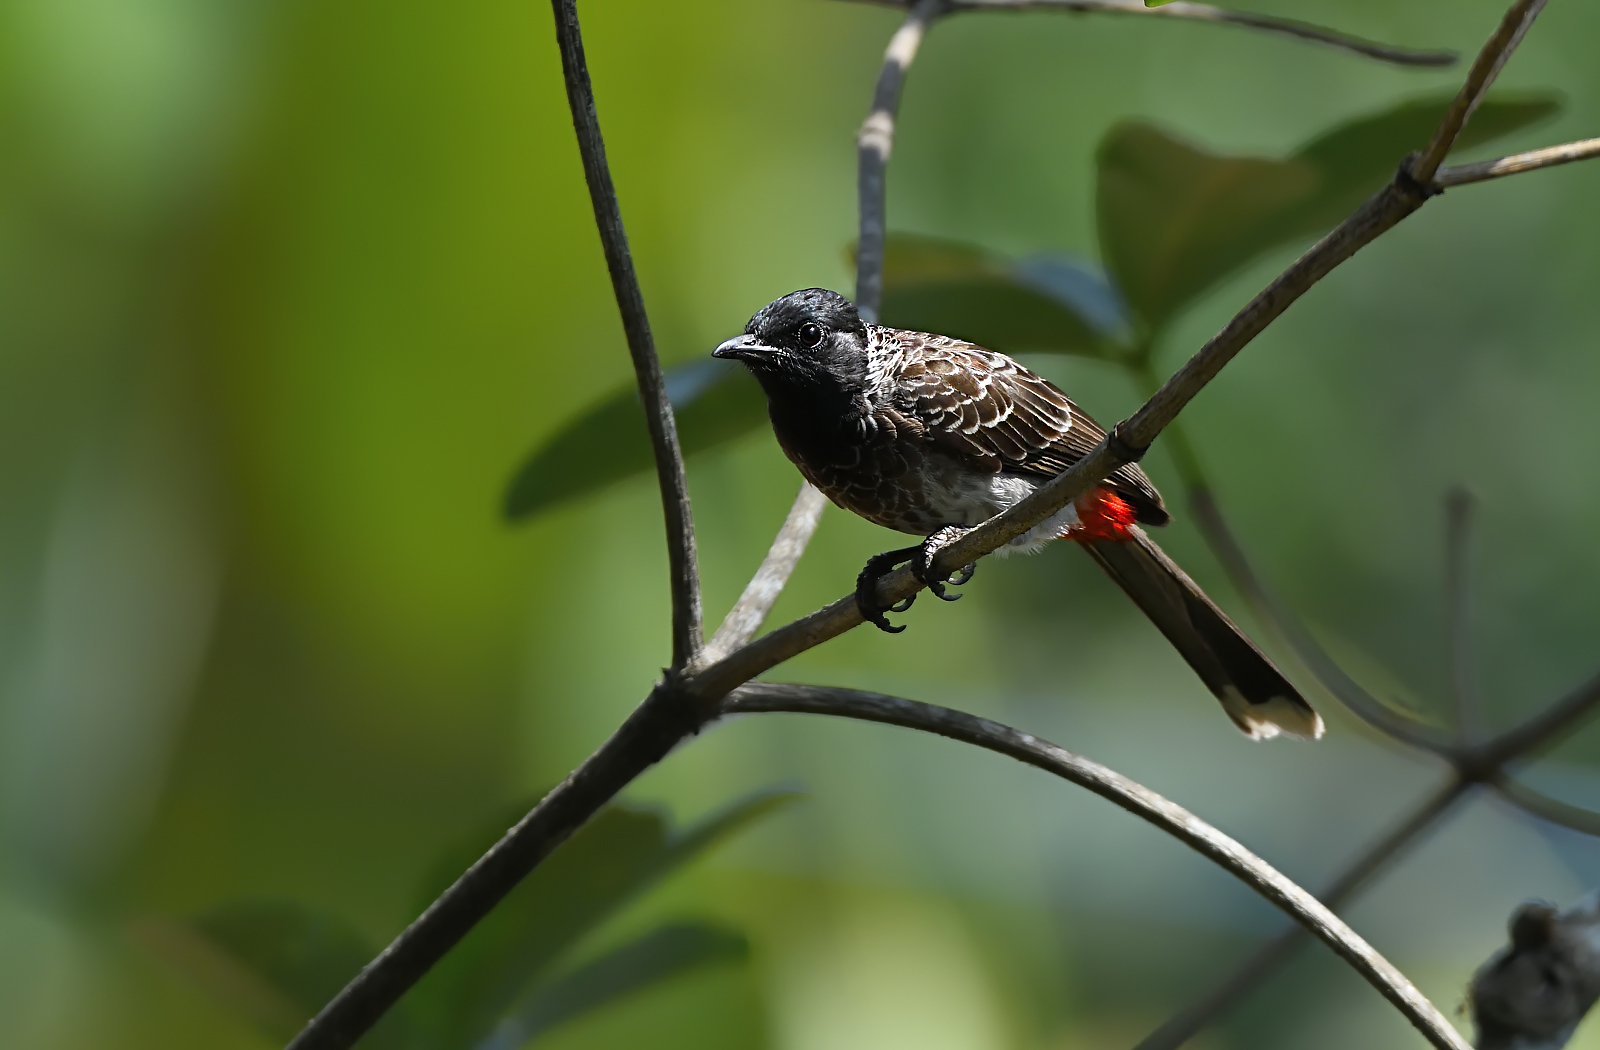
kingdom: Animalia
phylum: Chordata
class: Aves
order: Passeriformes
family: Pycnonotidae
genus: Pycnonotus
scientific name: Pycnonotus cafer
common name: Red-vented bulbul
